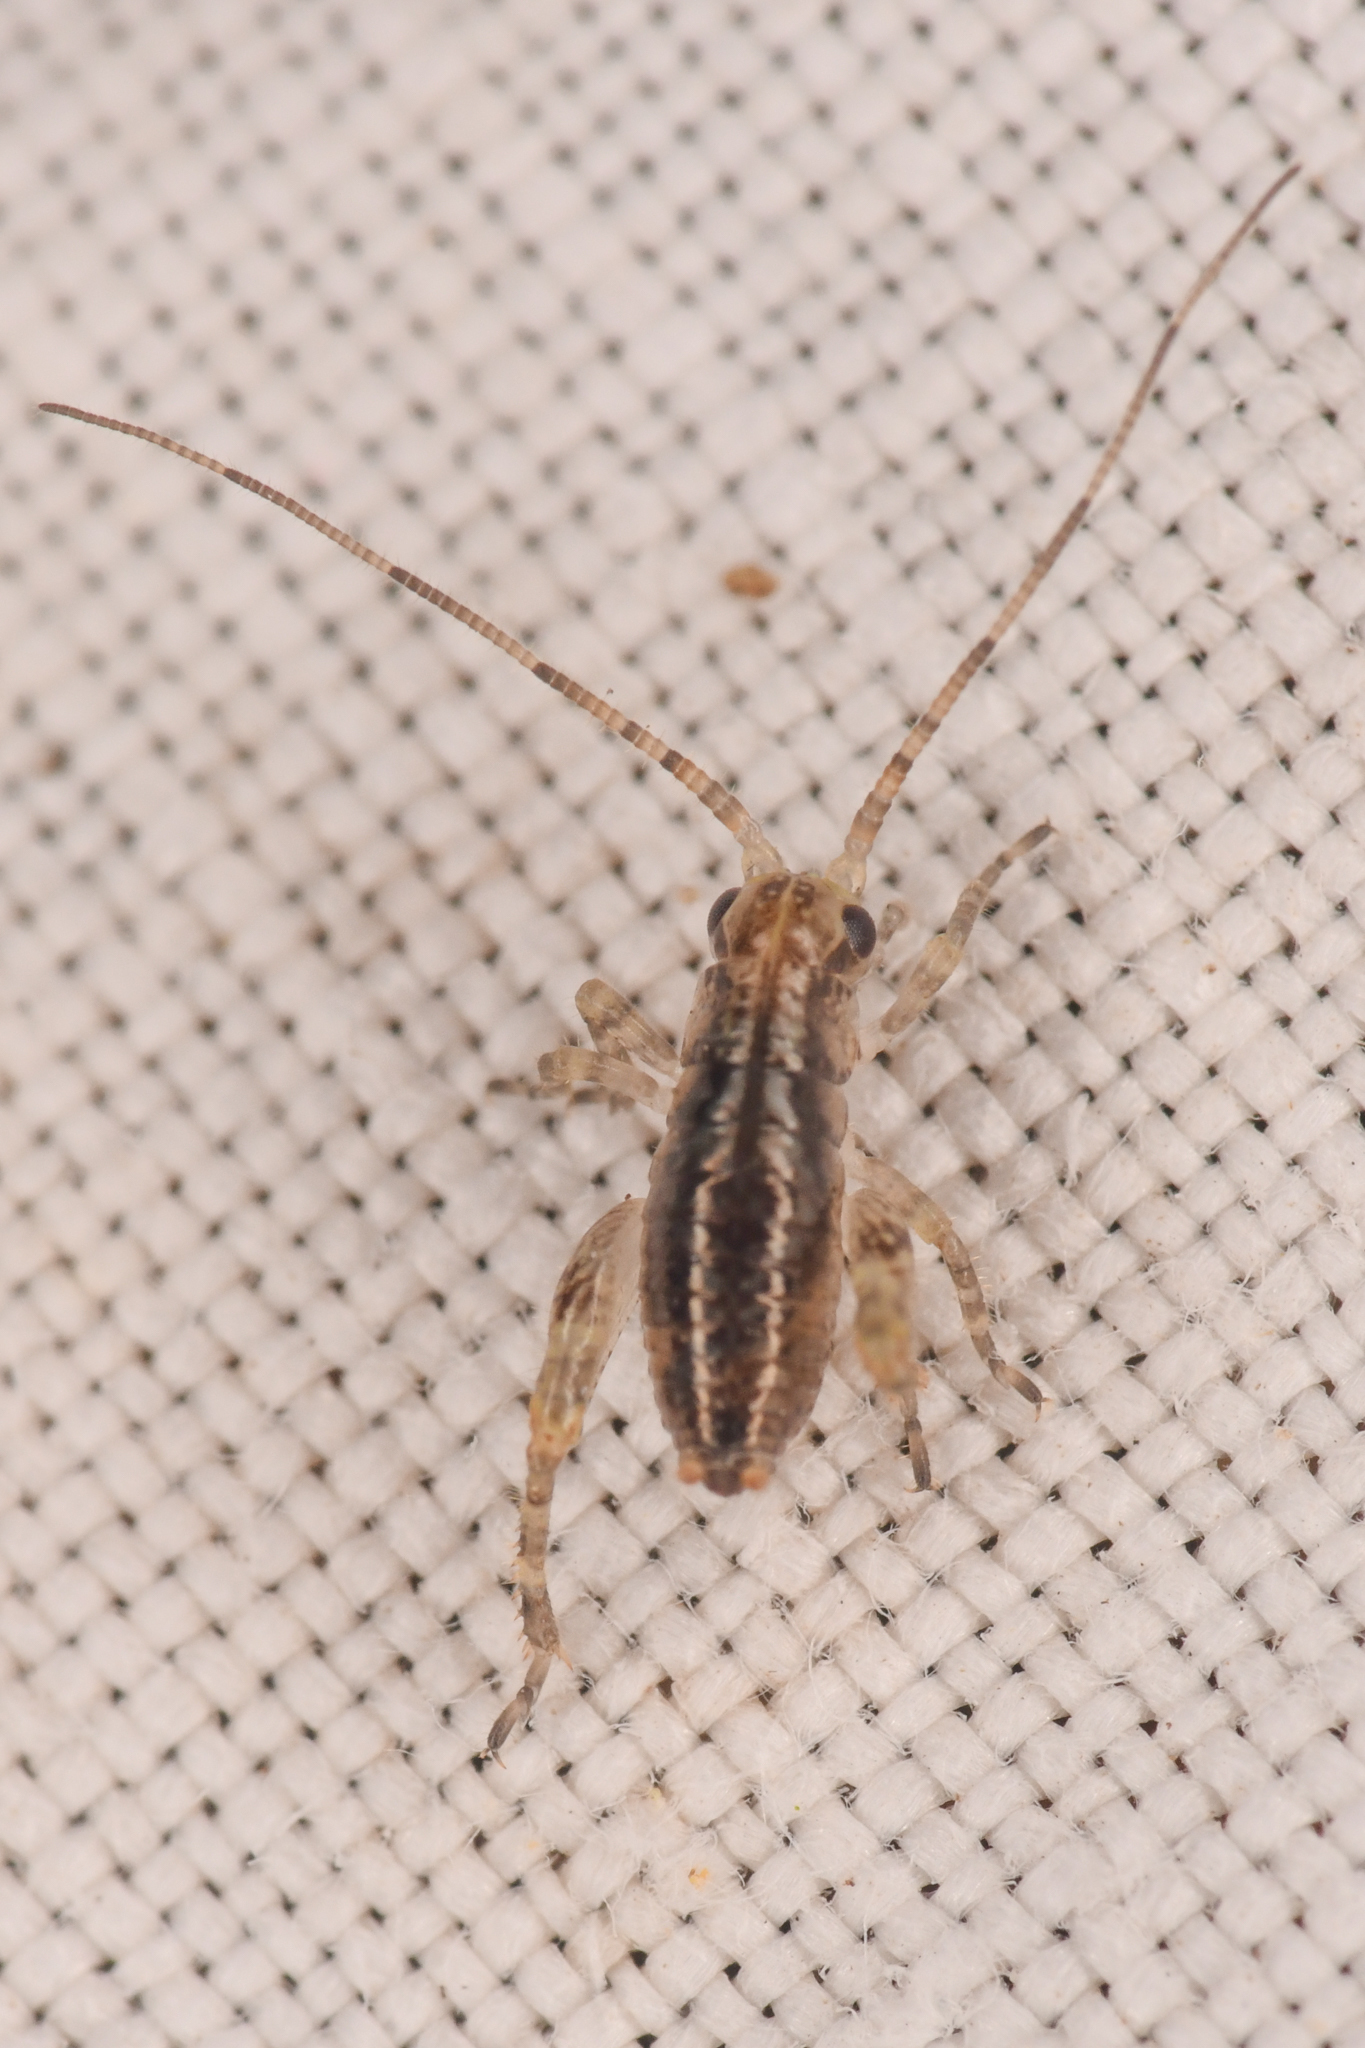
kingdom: Animalia
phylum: Arthropoda
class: Insecta
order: Orthoptera
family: Rhaphidophoridae
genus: Gammarotettix
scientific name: Gammarotettix genitalis
